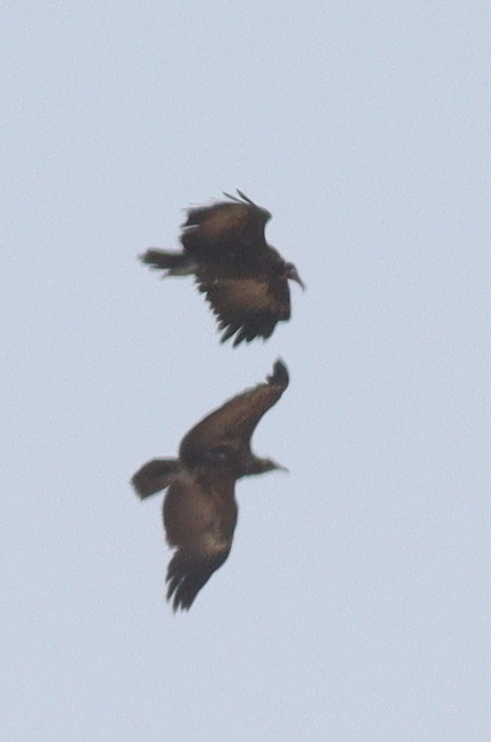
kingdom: Animalia
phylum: Chordata
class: Aves
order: Accipitriformes
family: Accipitridae
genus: Necrosyrtes
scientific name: Necrosyrtes monachus
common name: Hooded vulture
